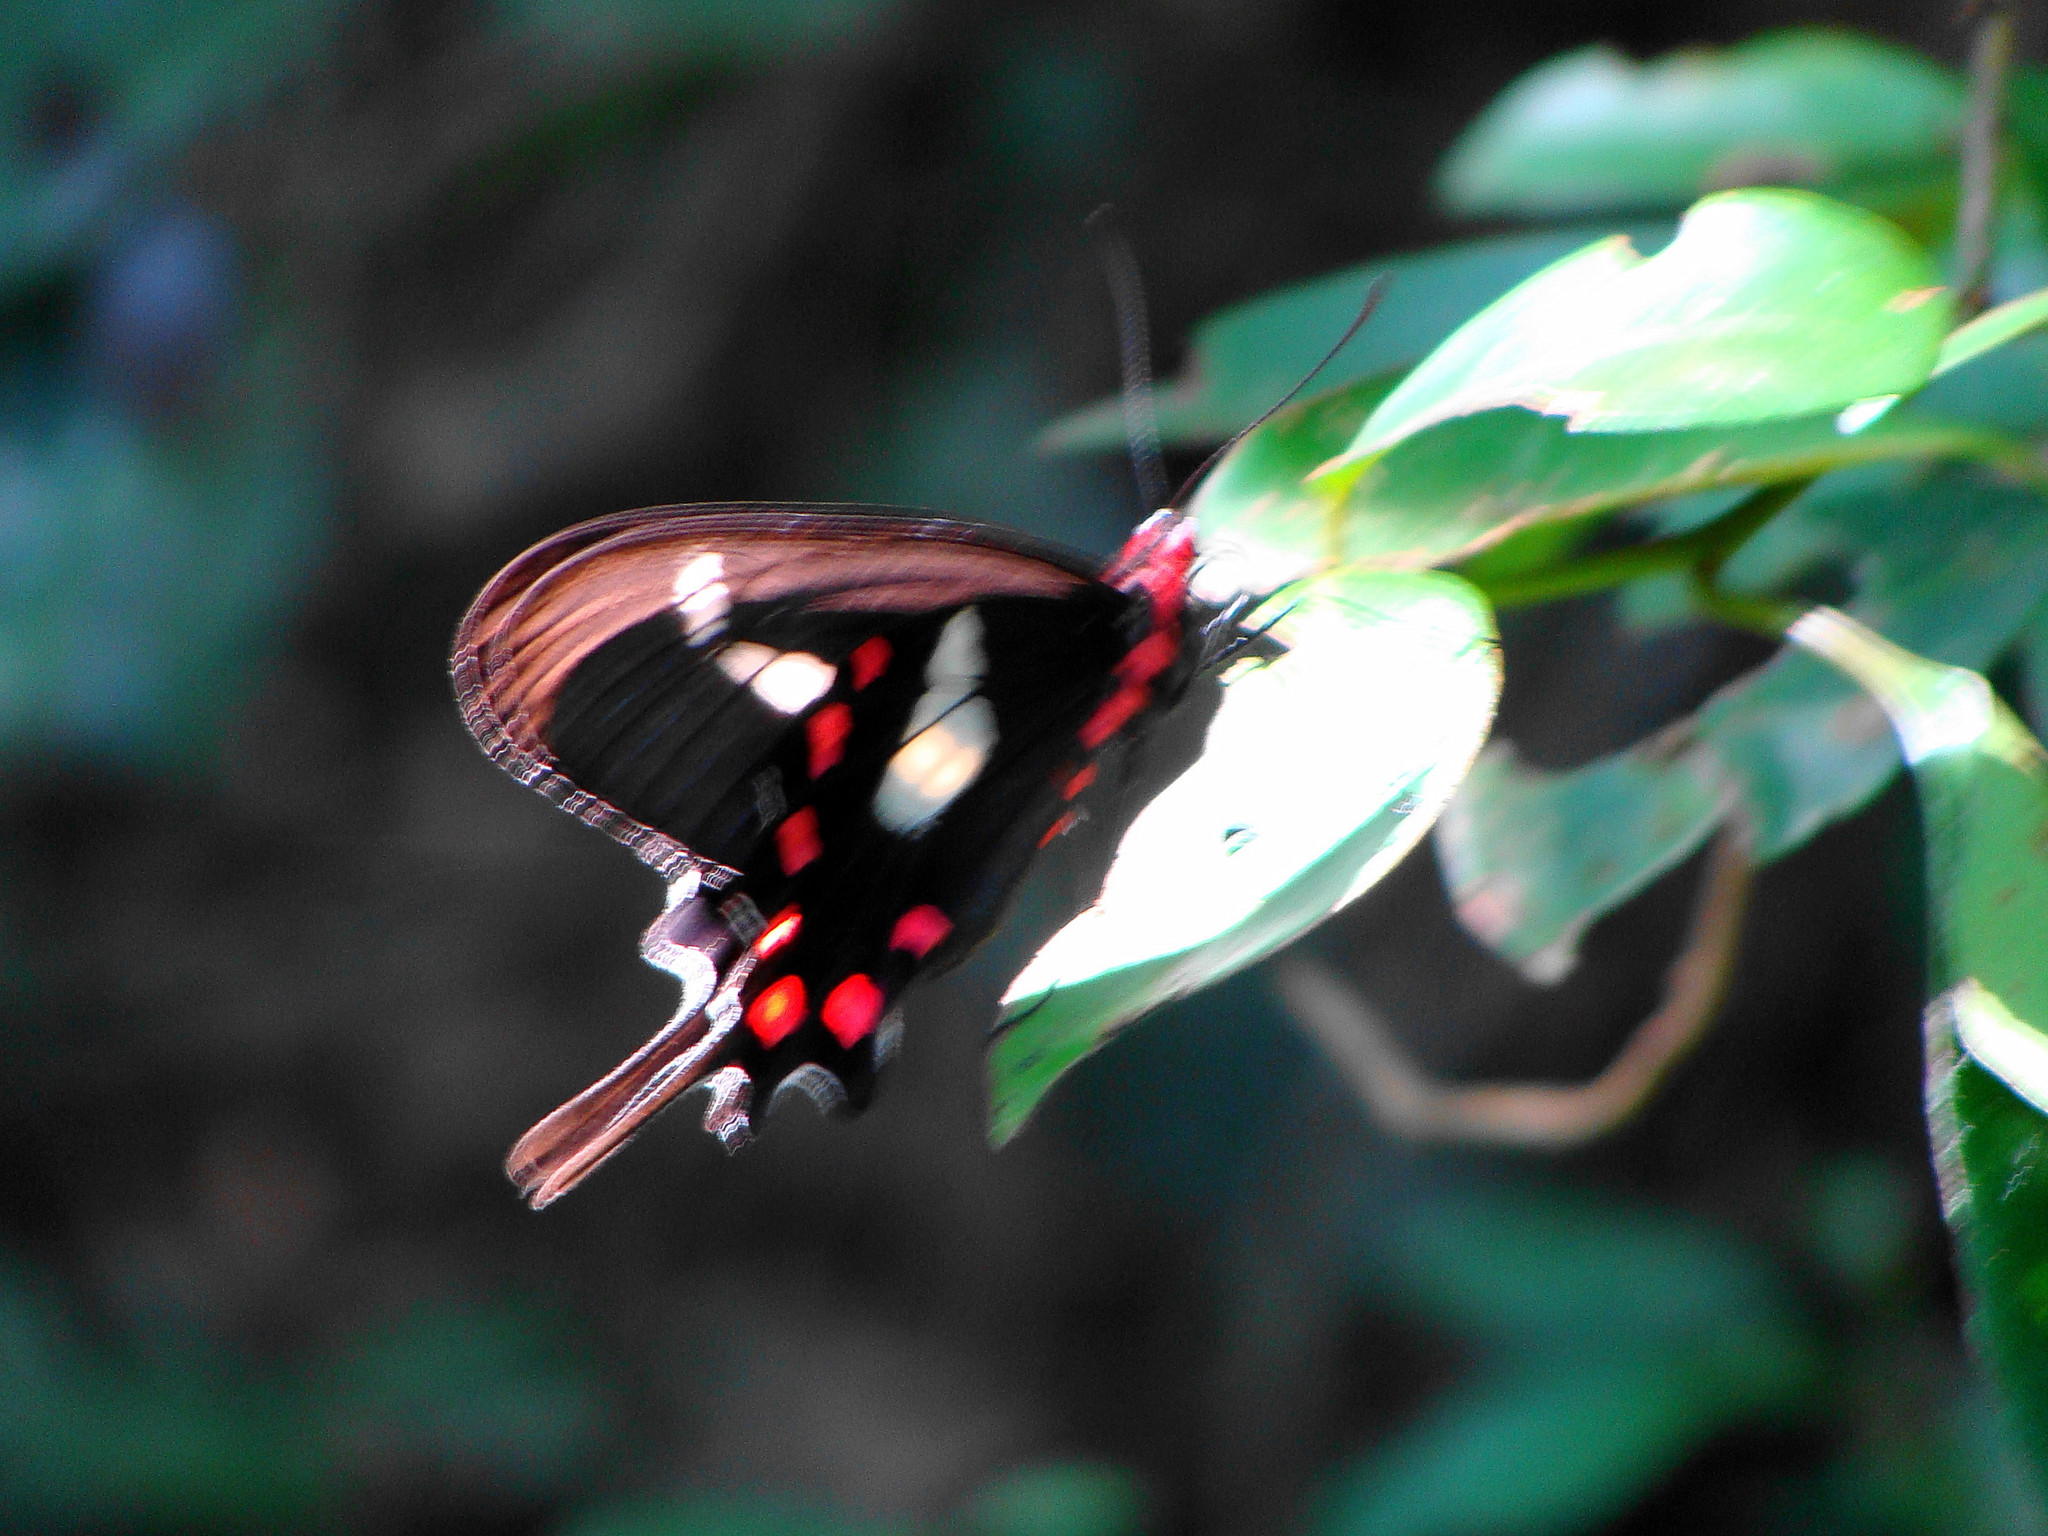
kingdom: Animalia
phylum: Arthropoda
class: Insecta
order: Lepidoptera
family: Papilionidae
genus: Parides
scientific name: Parides agavus
